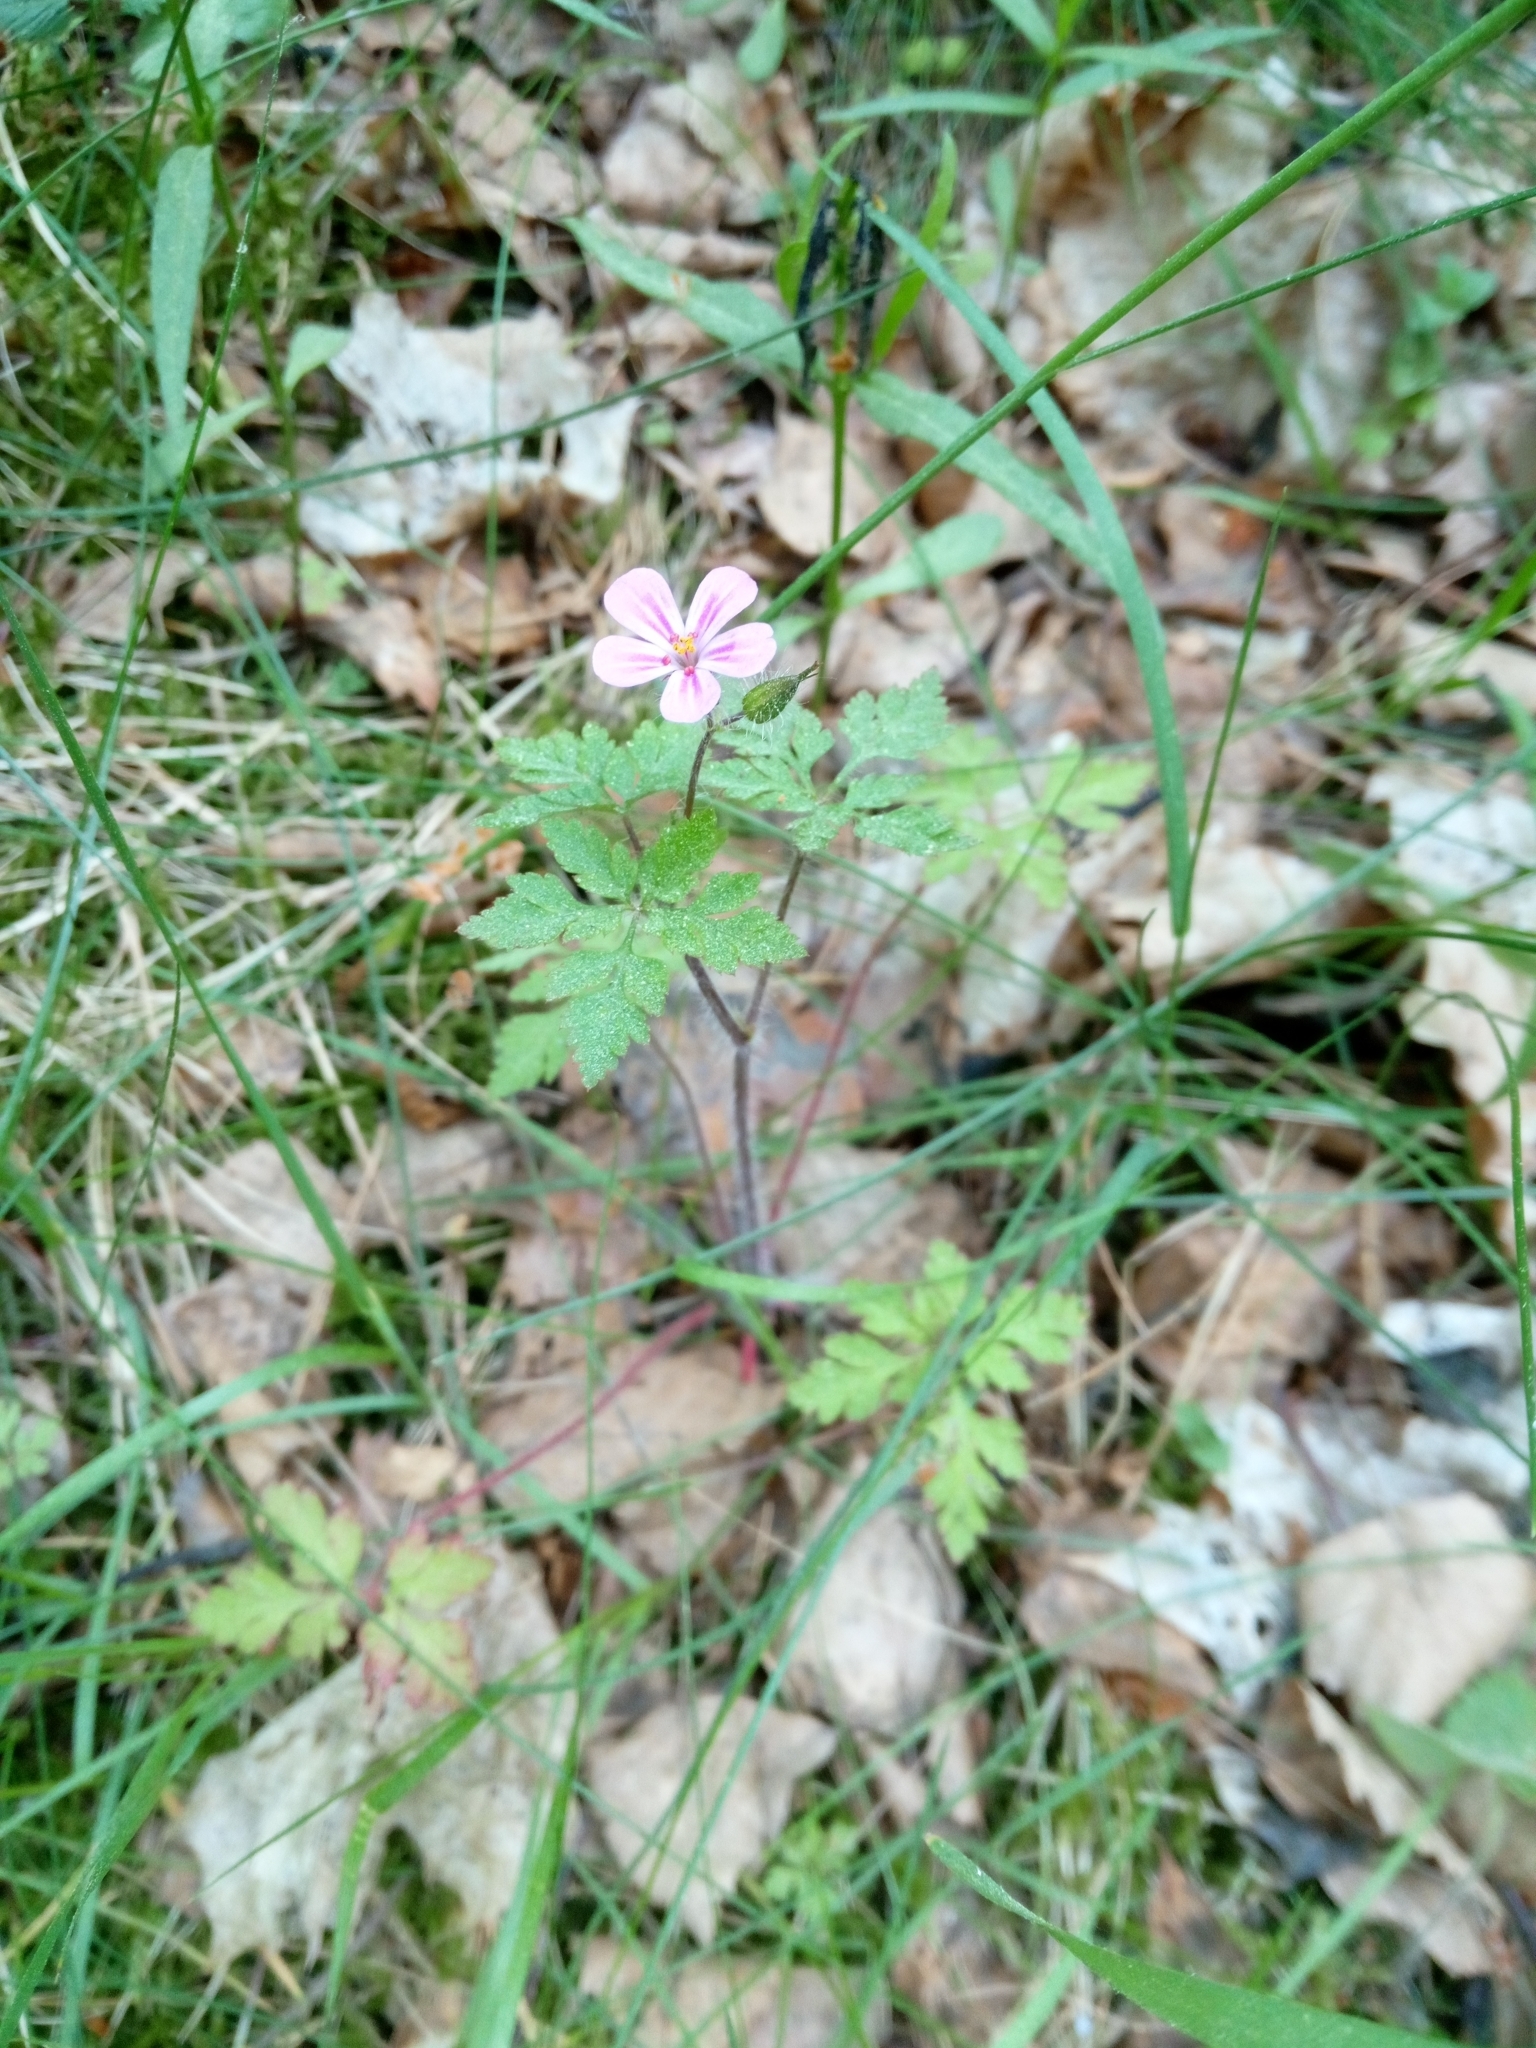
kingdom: Plantae
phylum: Tracheophyta
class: Magnoliopsida
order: Geraniales
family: Geraniaceae
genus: Geranium
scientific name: Geranium robertianum
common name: Herb-robert
